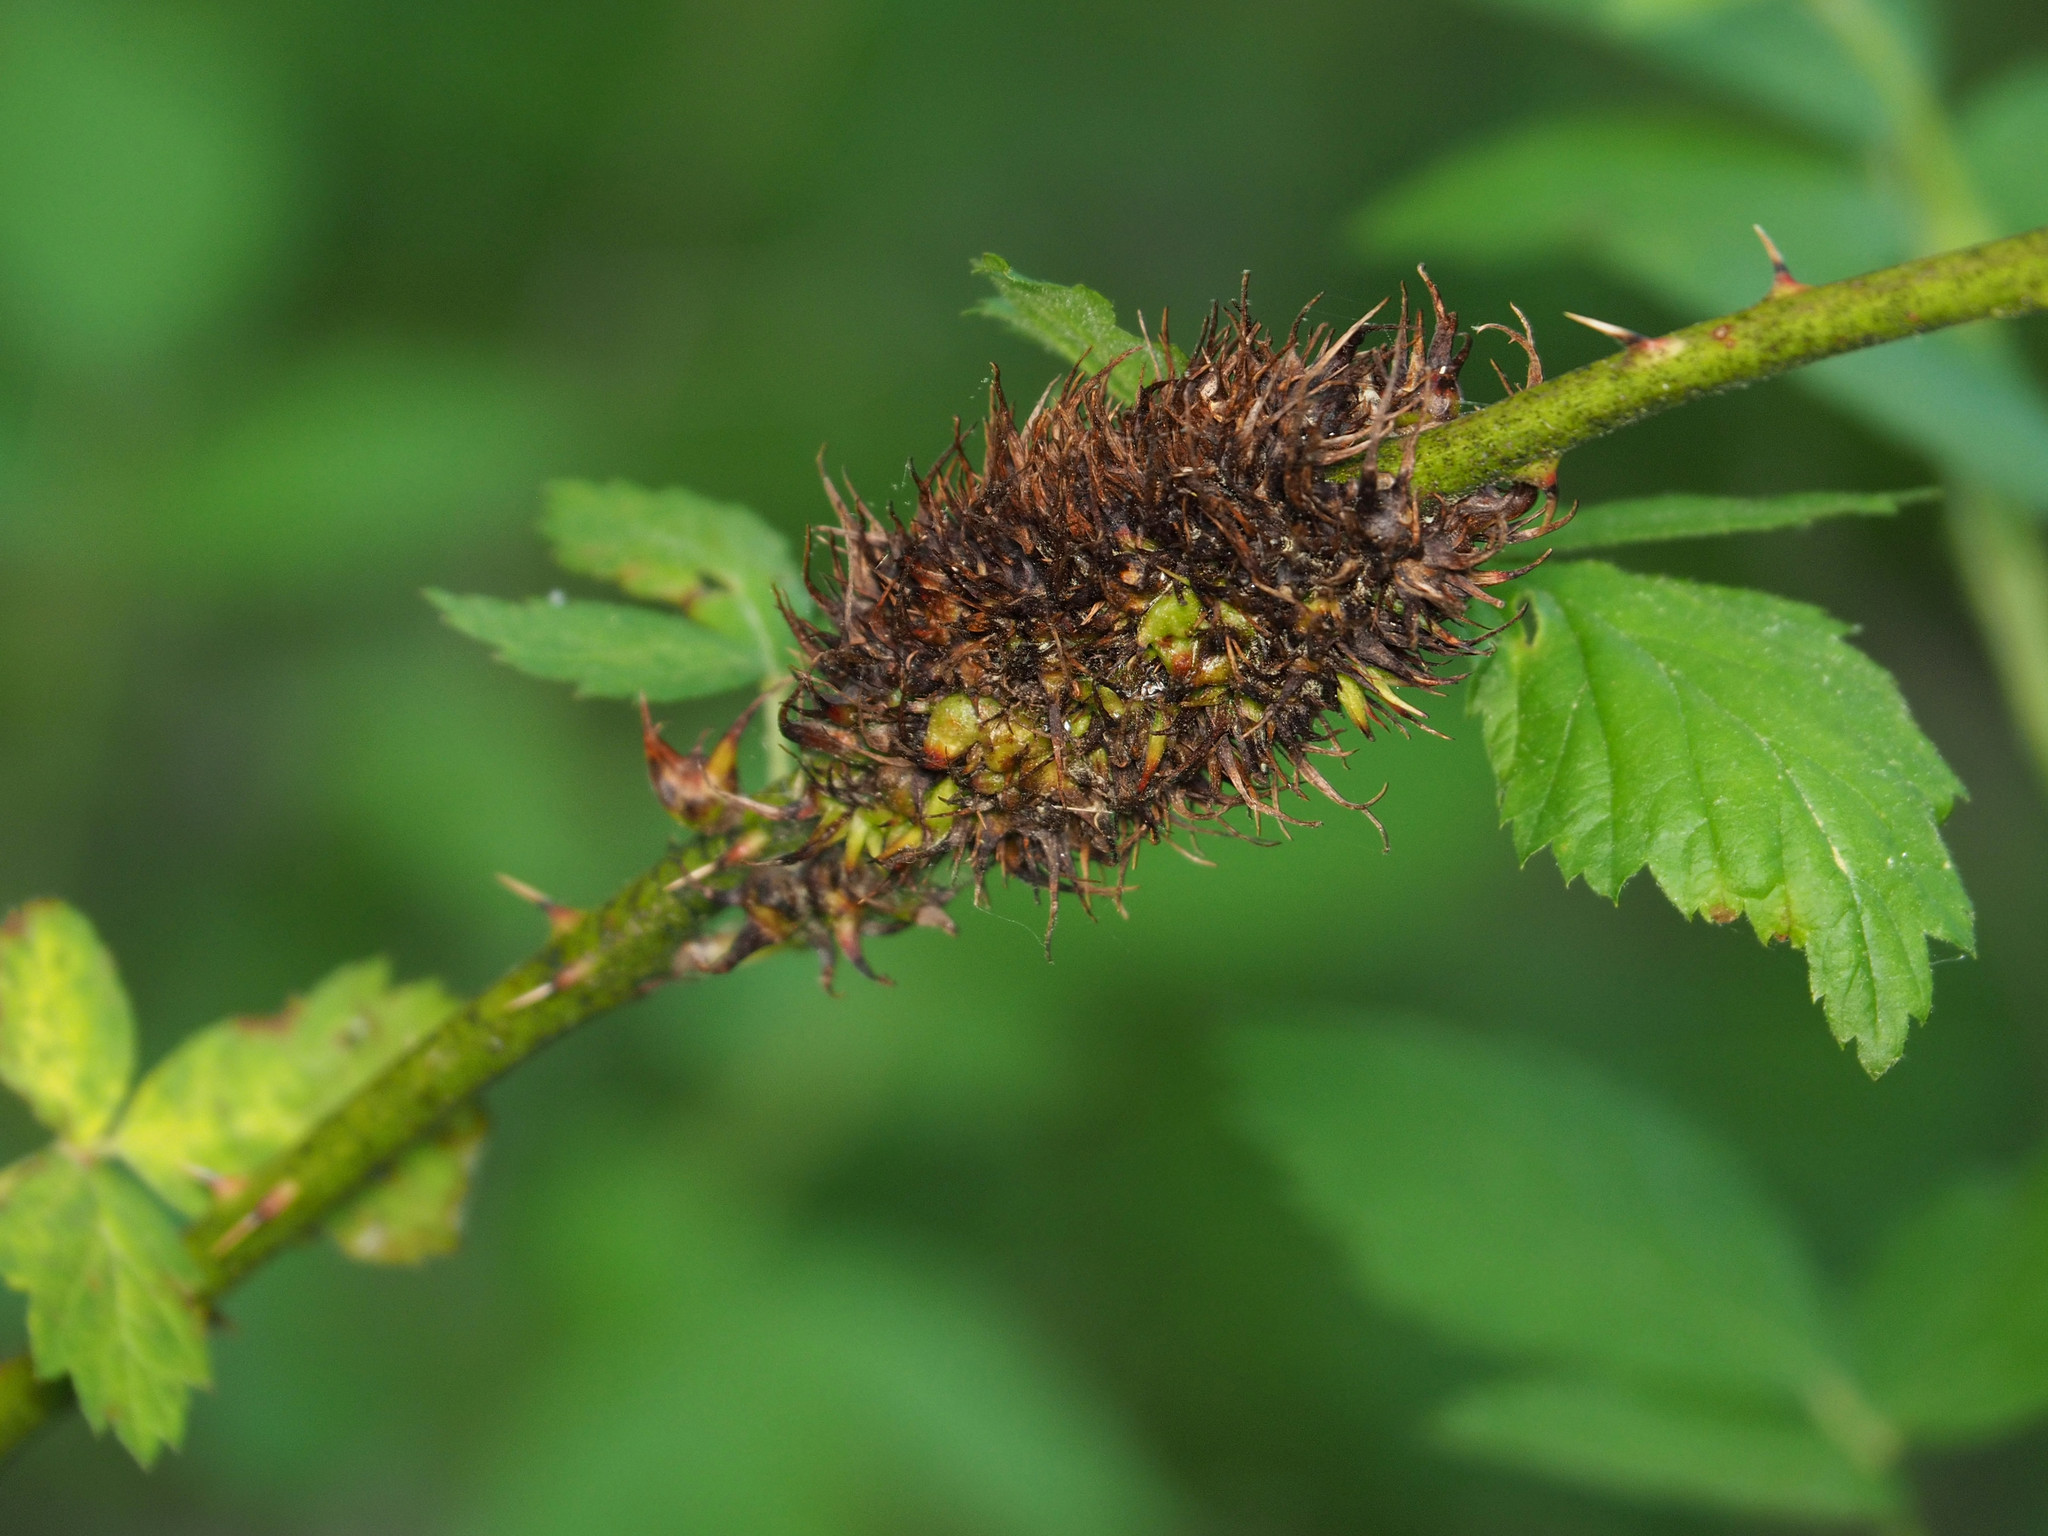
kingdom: Animalia
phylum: Arthropoda
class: Insecta
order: Hymenoptera
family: Cynipidae
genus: Diastrophus
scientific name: Diastrophus
